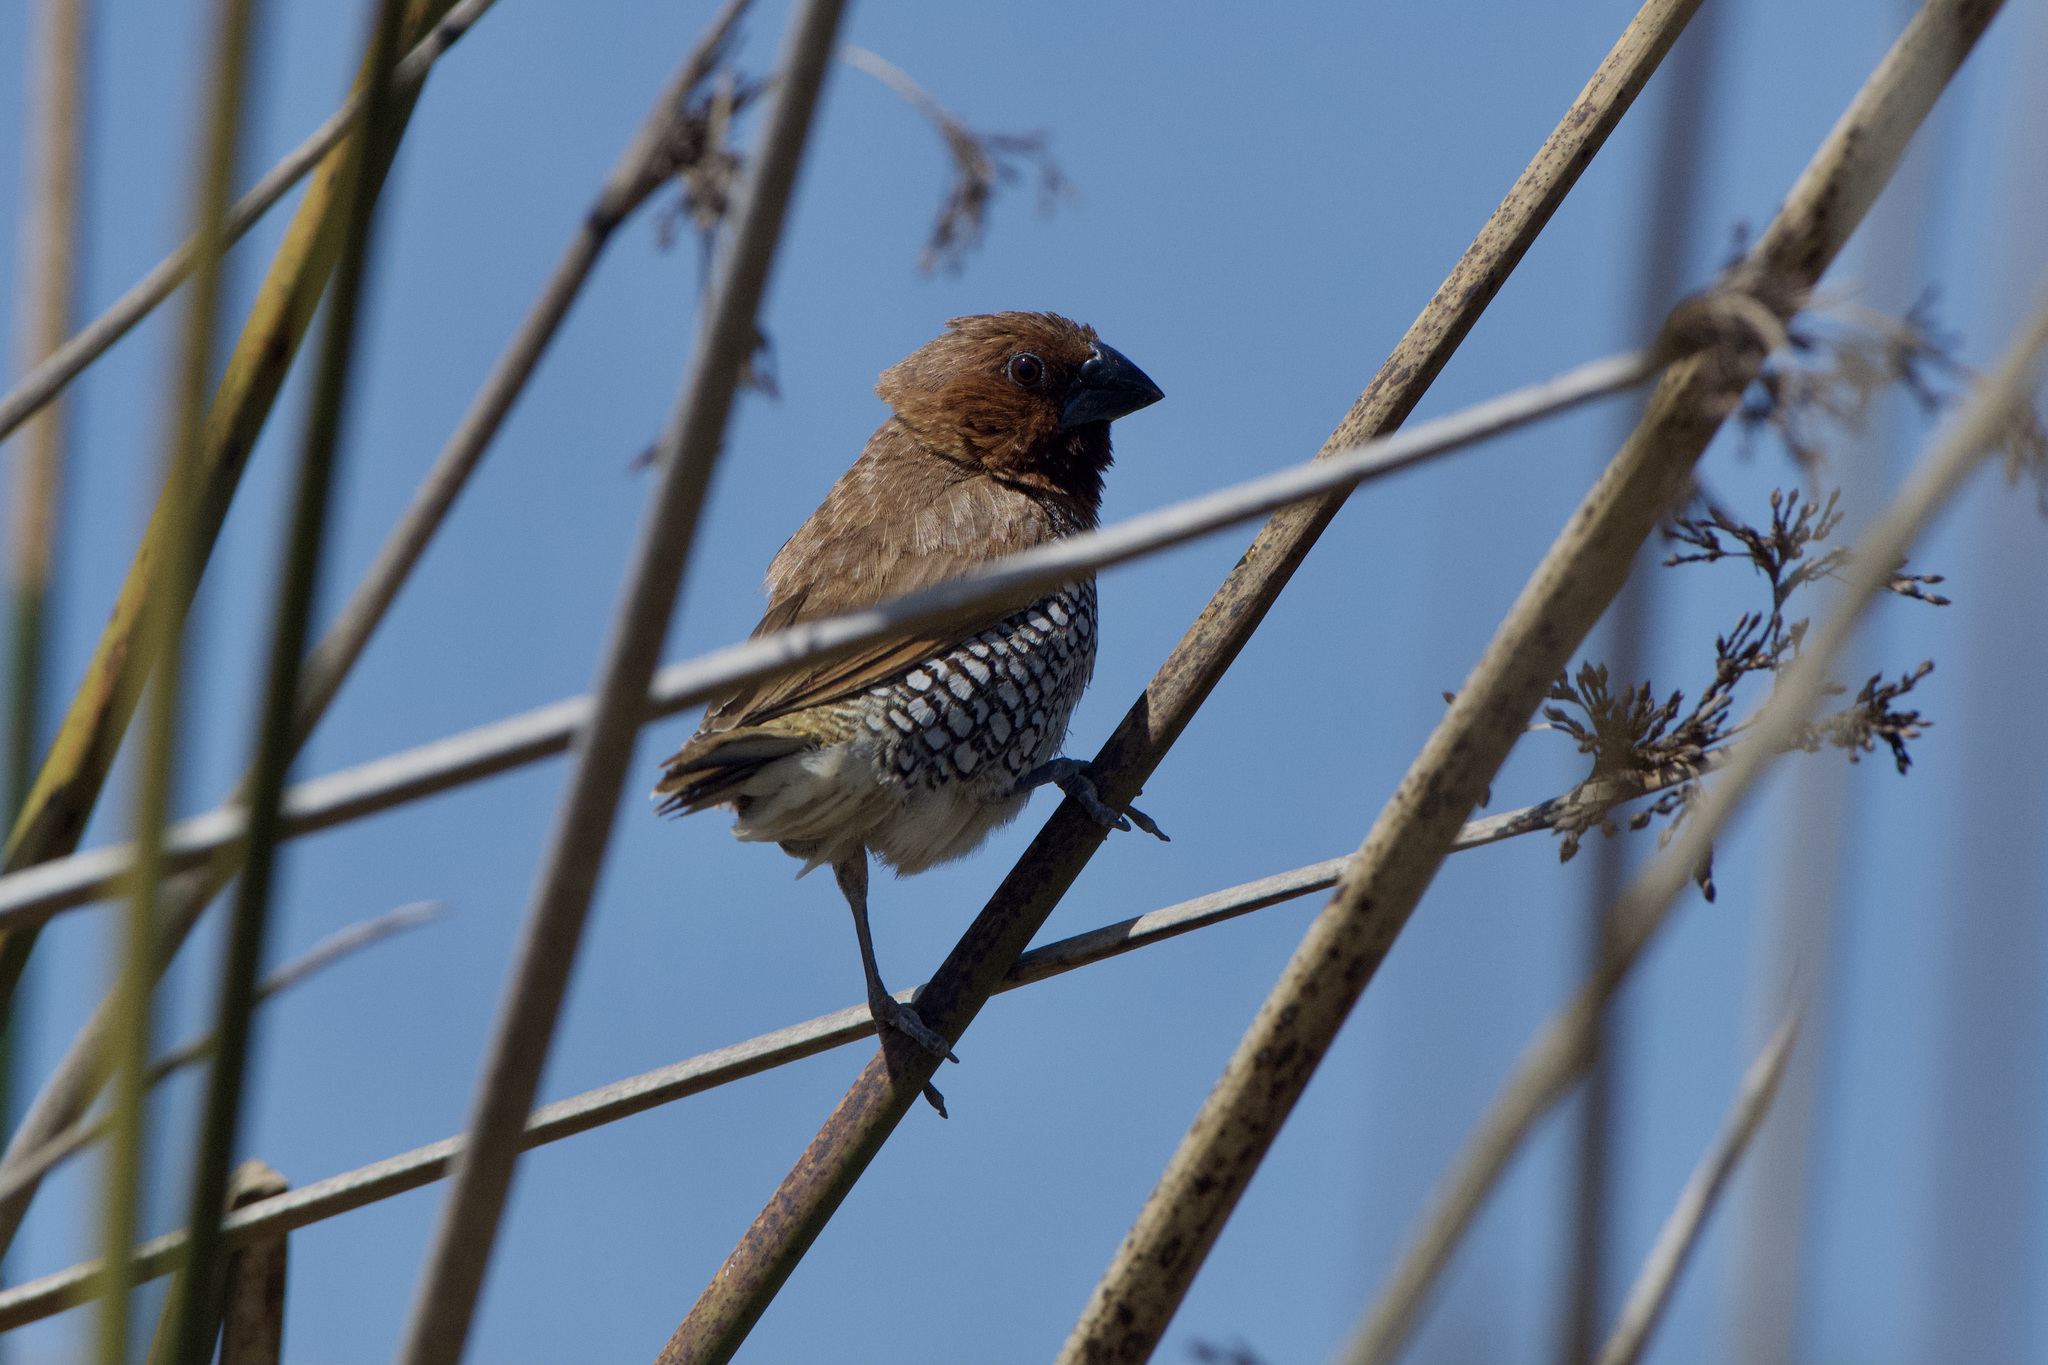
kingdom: Animalia
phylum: Chordata
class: Aves
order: Passeriformes
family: Estrildidae
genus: Lonchura
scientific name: Lonchura punctulata
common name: Scaly-breasted munia
